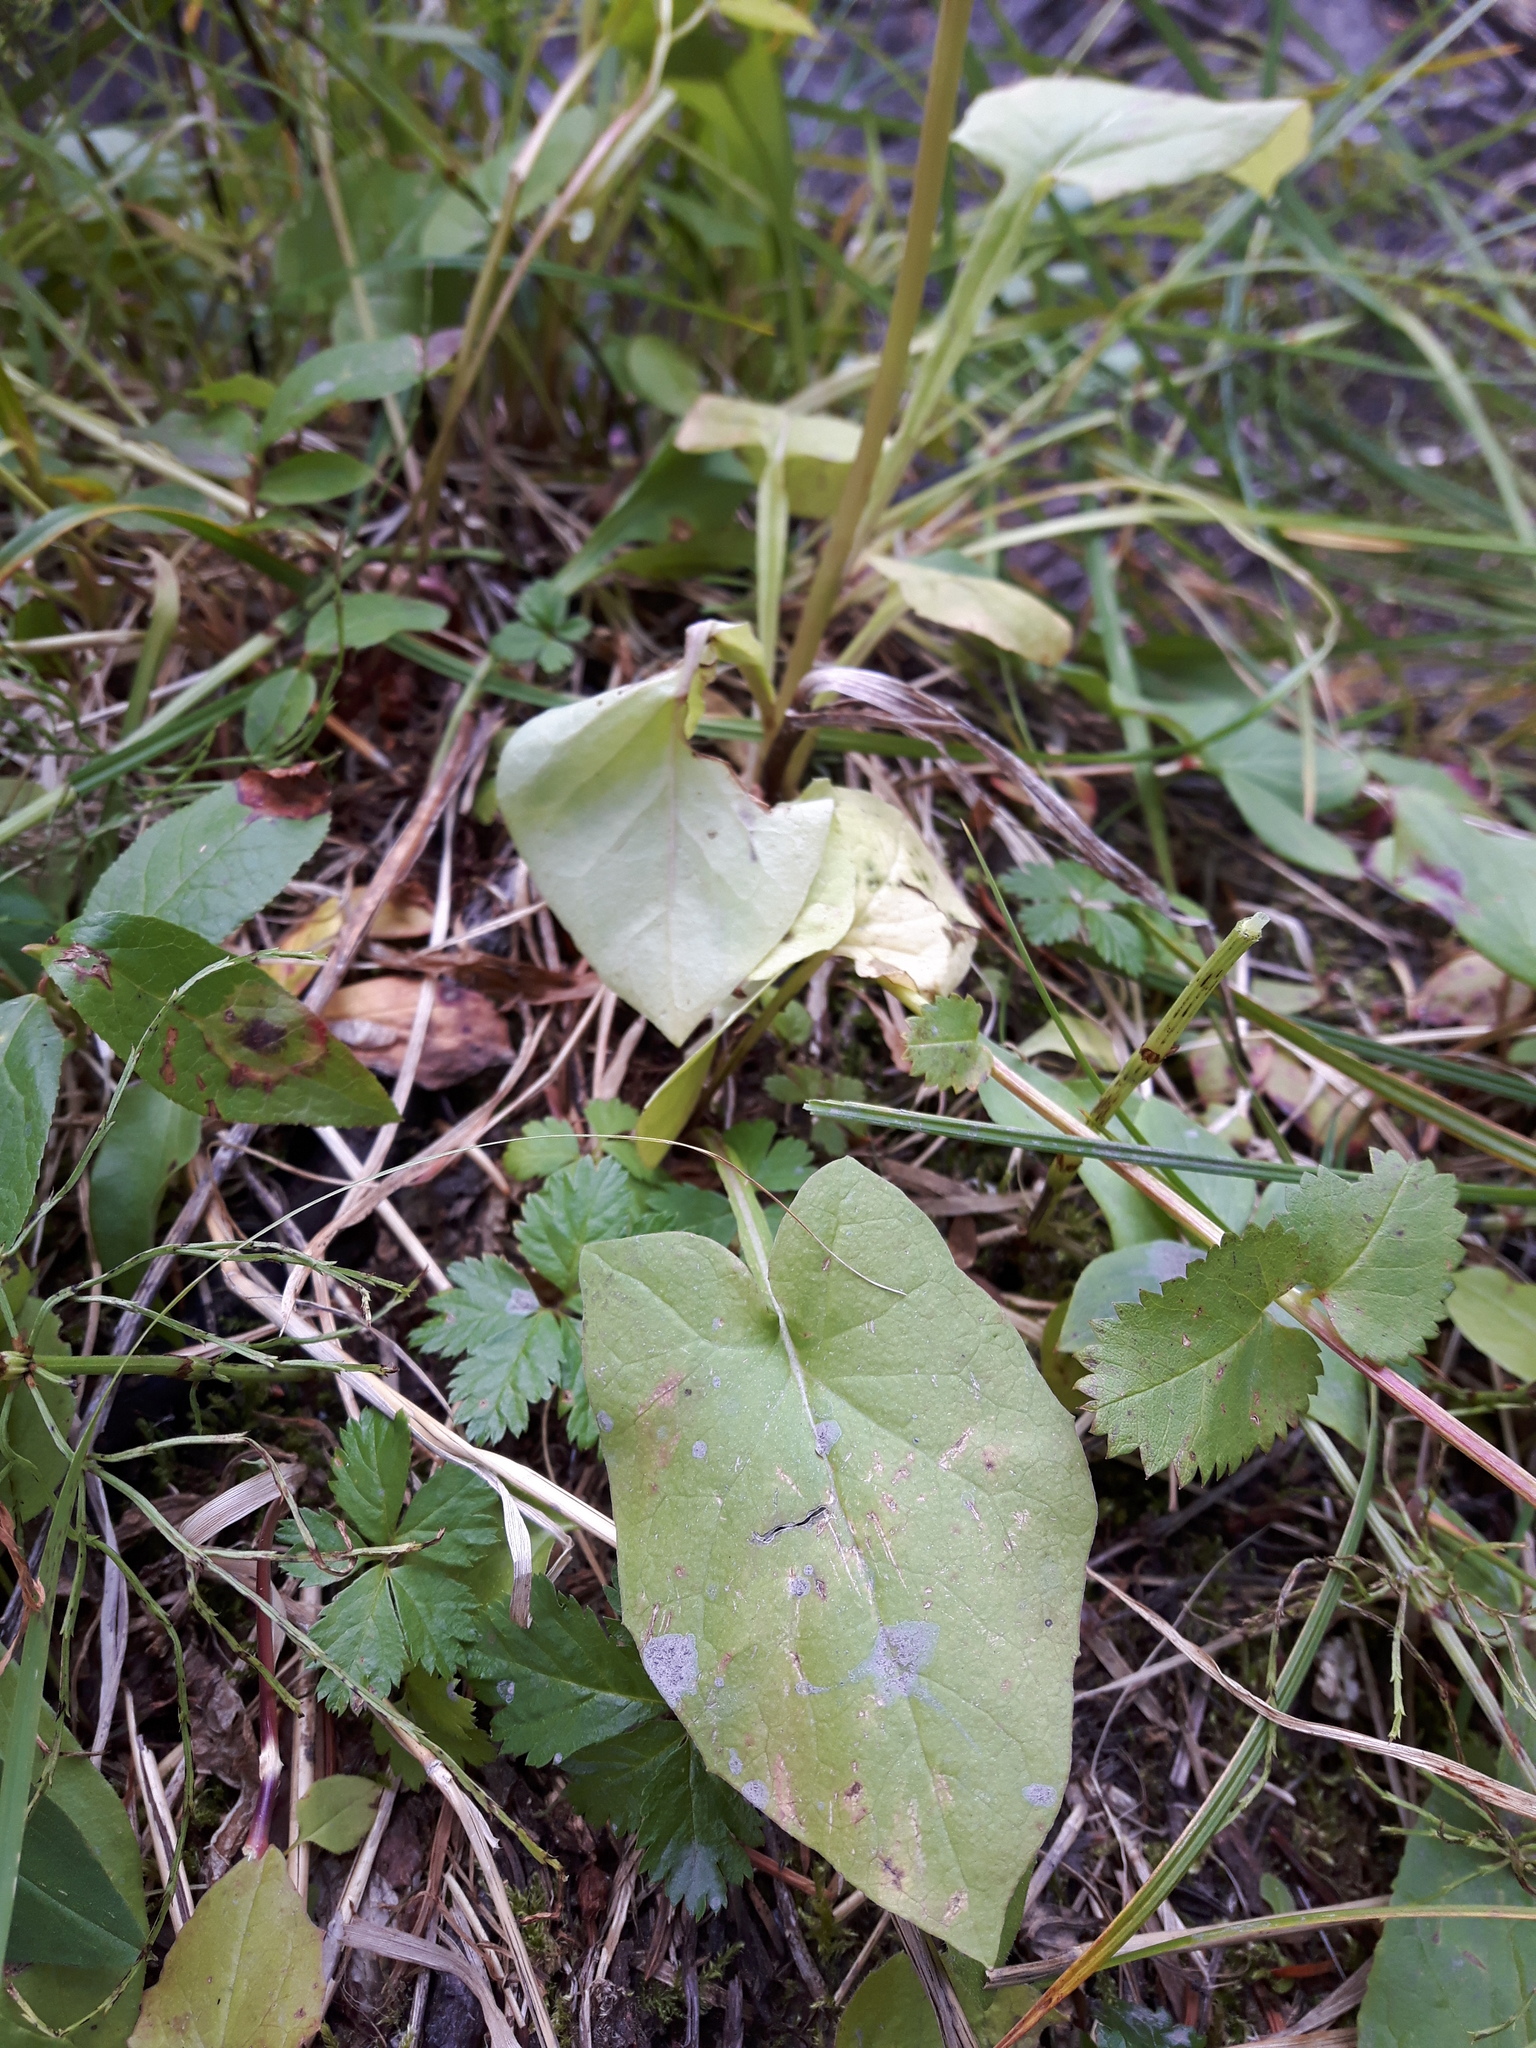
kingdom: Plantae
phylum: Tracheophyta
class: Magnoliopsida
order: Asterales
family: Asteraceae
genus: Nabalus
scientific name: Nabalus hastatus
